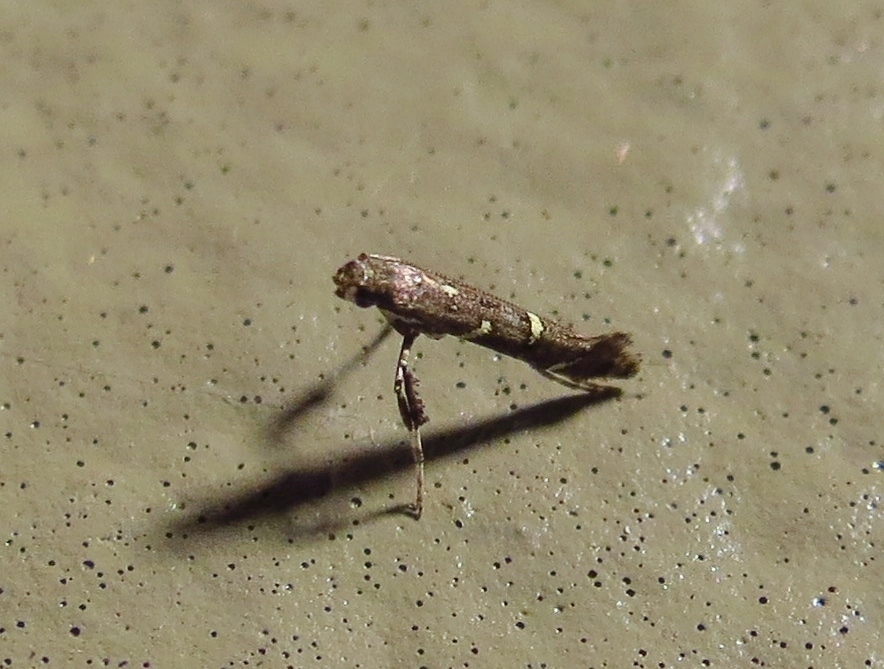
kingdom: Animalia
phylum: Arthropoda
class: Insecta
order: Lepidoptera
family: Gracillariidae
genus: Caloptilia
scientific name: Caloptilia triadicae
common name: Tallow leaf roller
